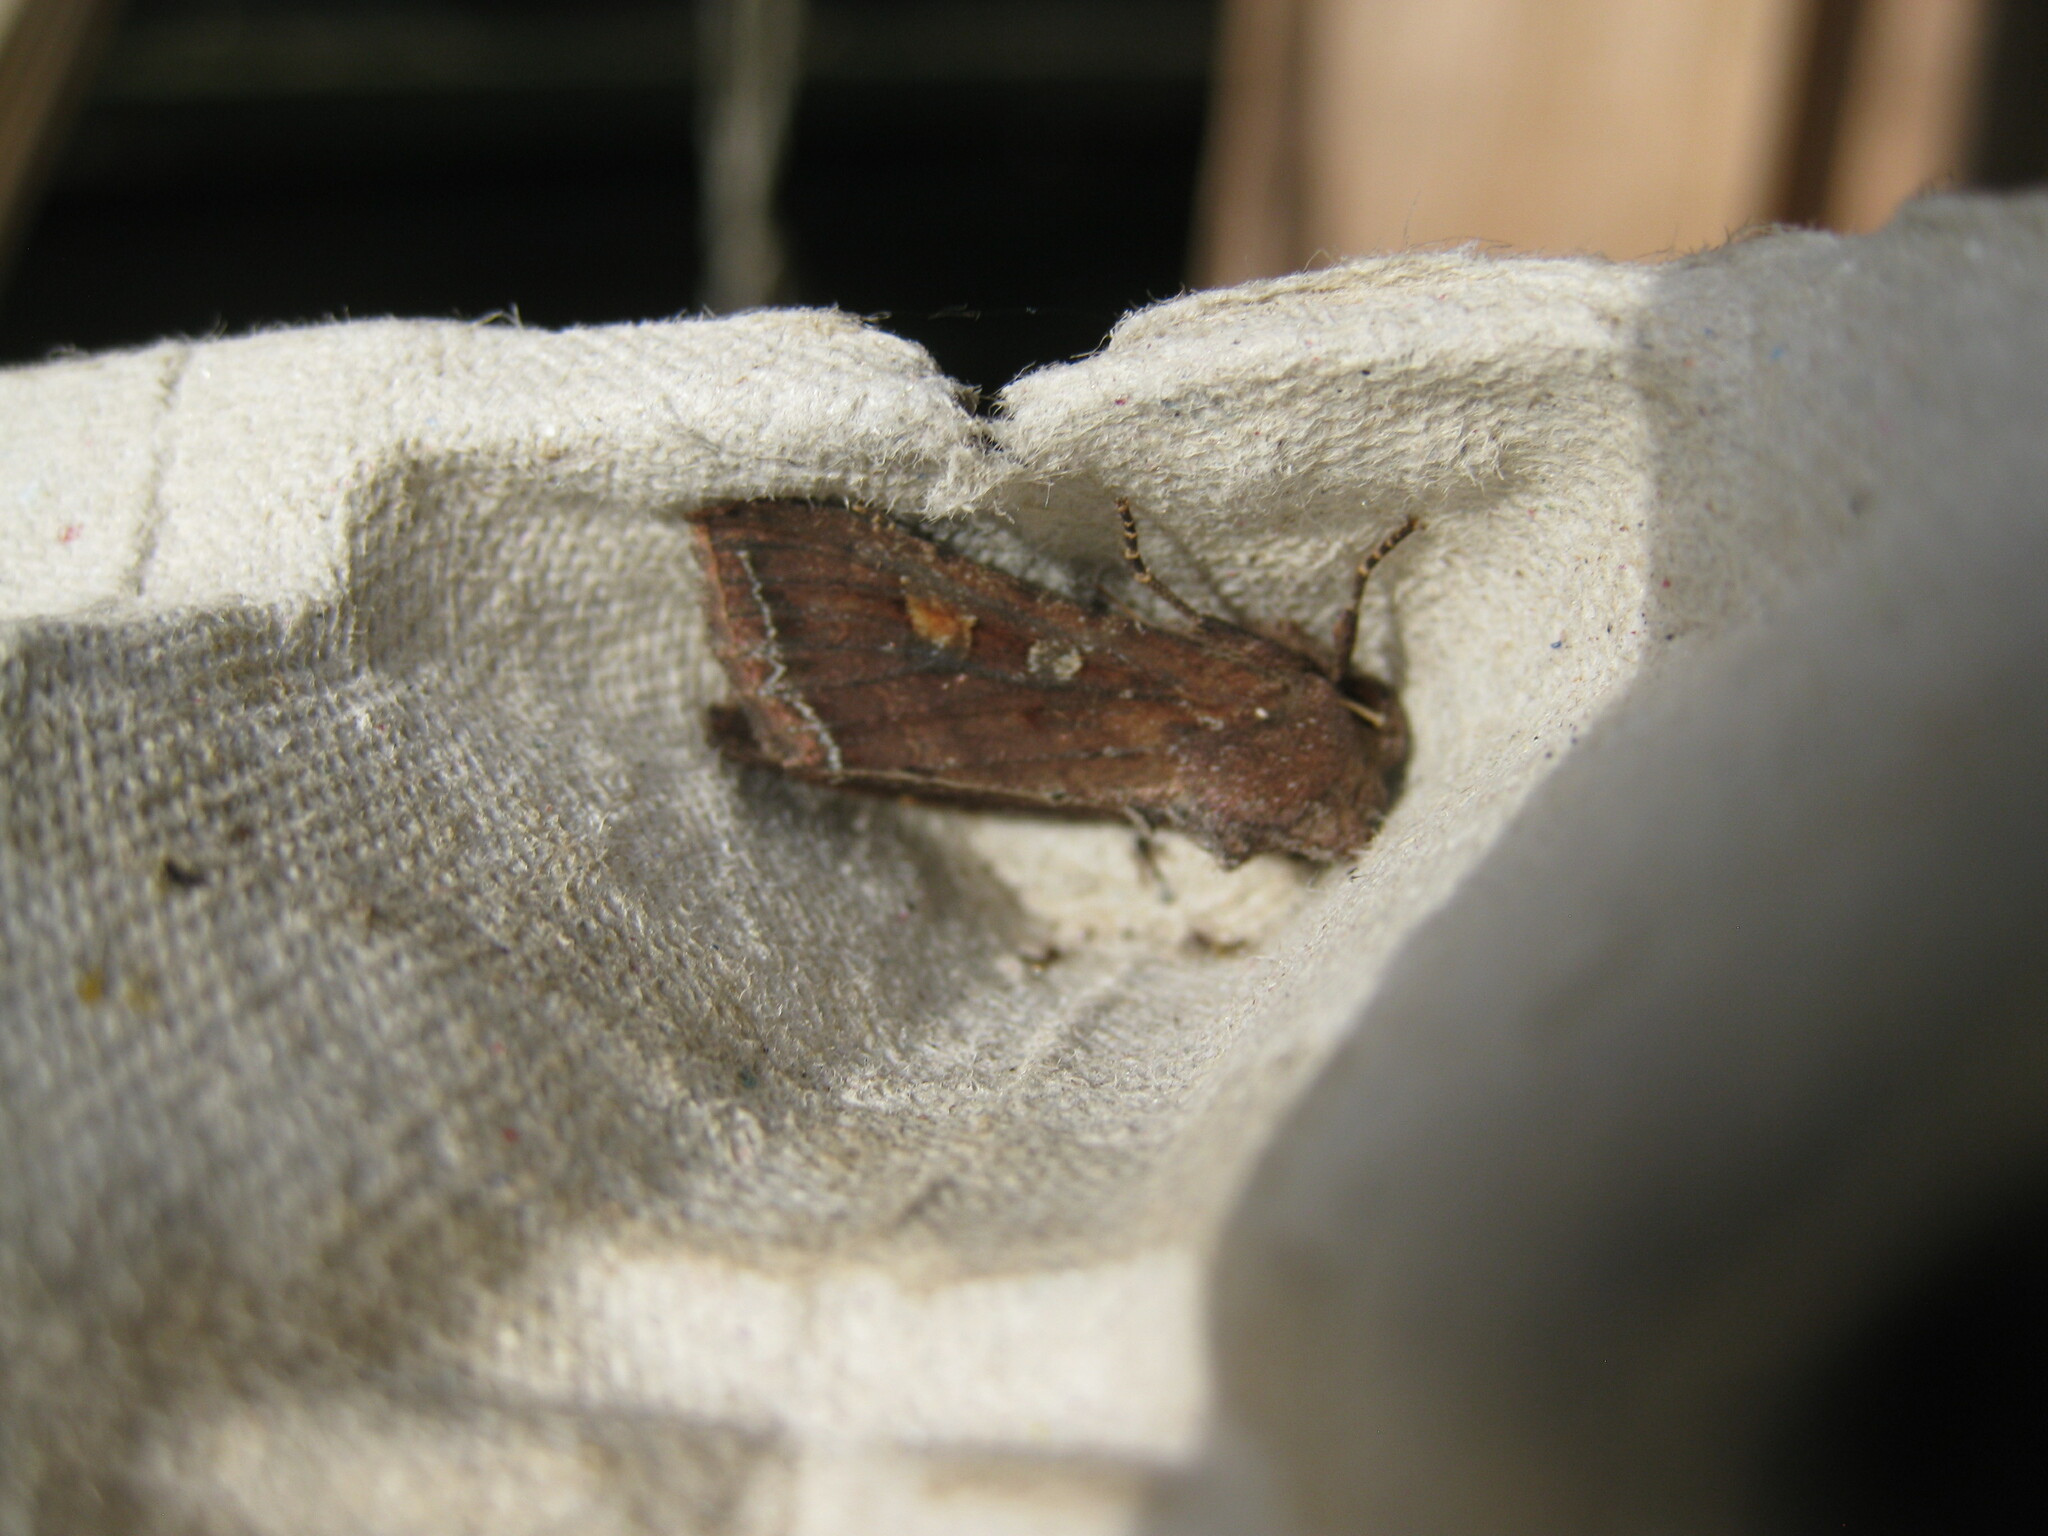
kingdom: Animalia
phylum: Arthropoda
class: Insecta
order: Lepidoptera
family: Noctuidae
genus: Lacanobia
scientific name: Lacanobia oleracea
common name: Bright-line brown-eye
